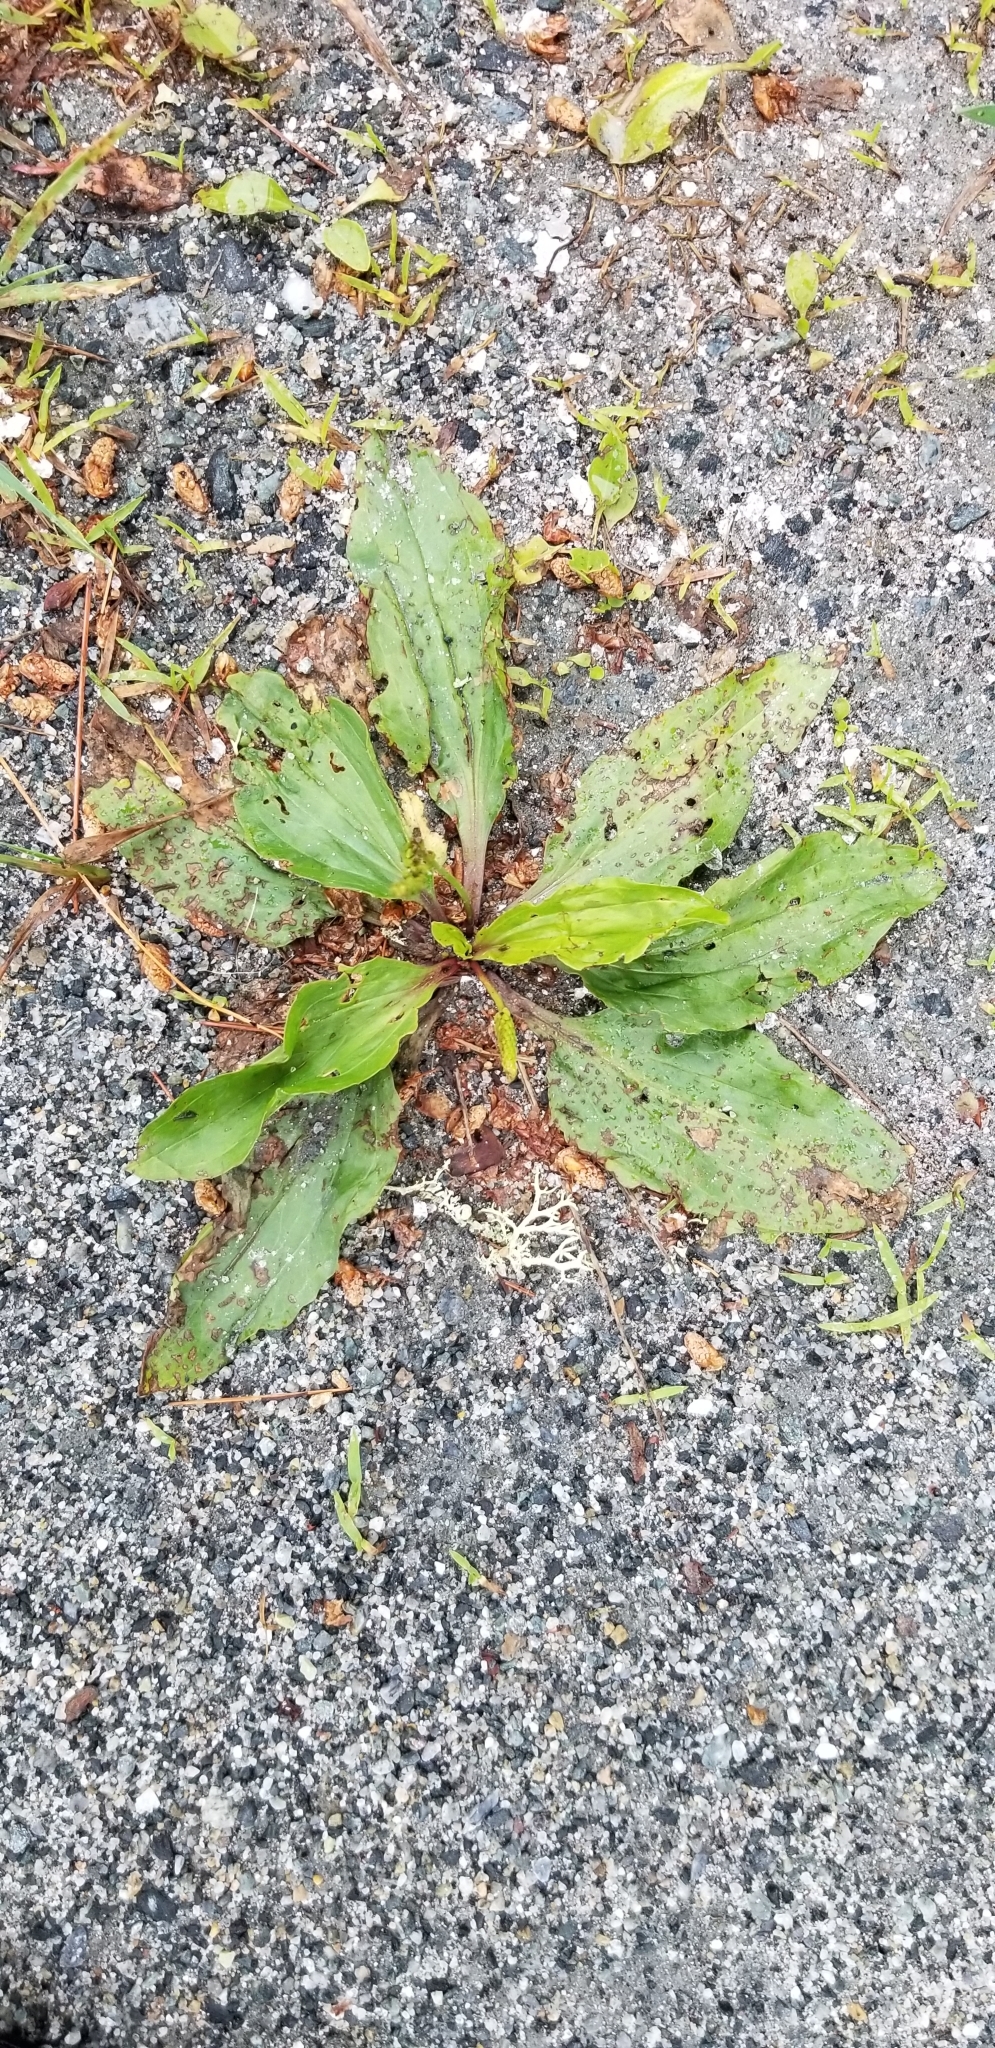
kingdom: Plantae
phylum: Tracheophyta
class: Magnoliopsida
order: Lamiales
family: Plantaginaceae
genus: Plantago
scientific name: Plantago rugelii
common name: American plantain
